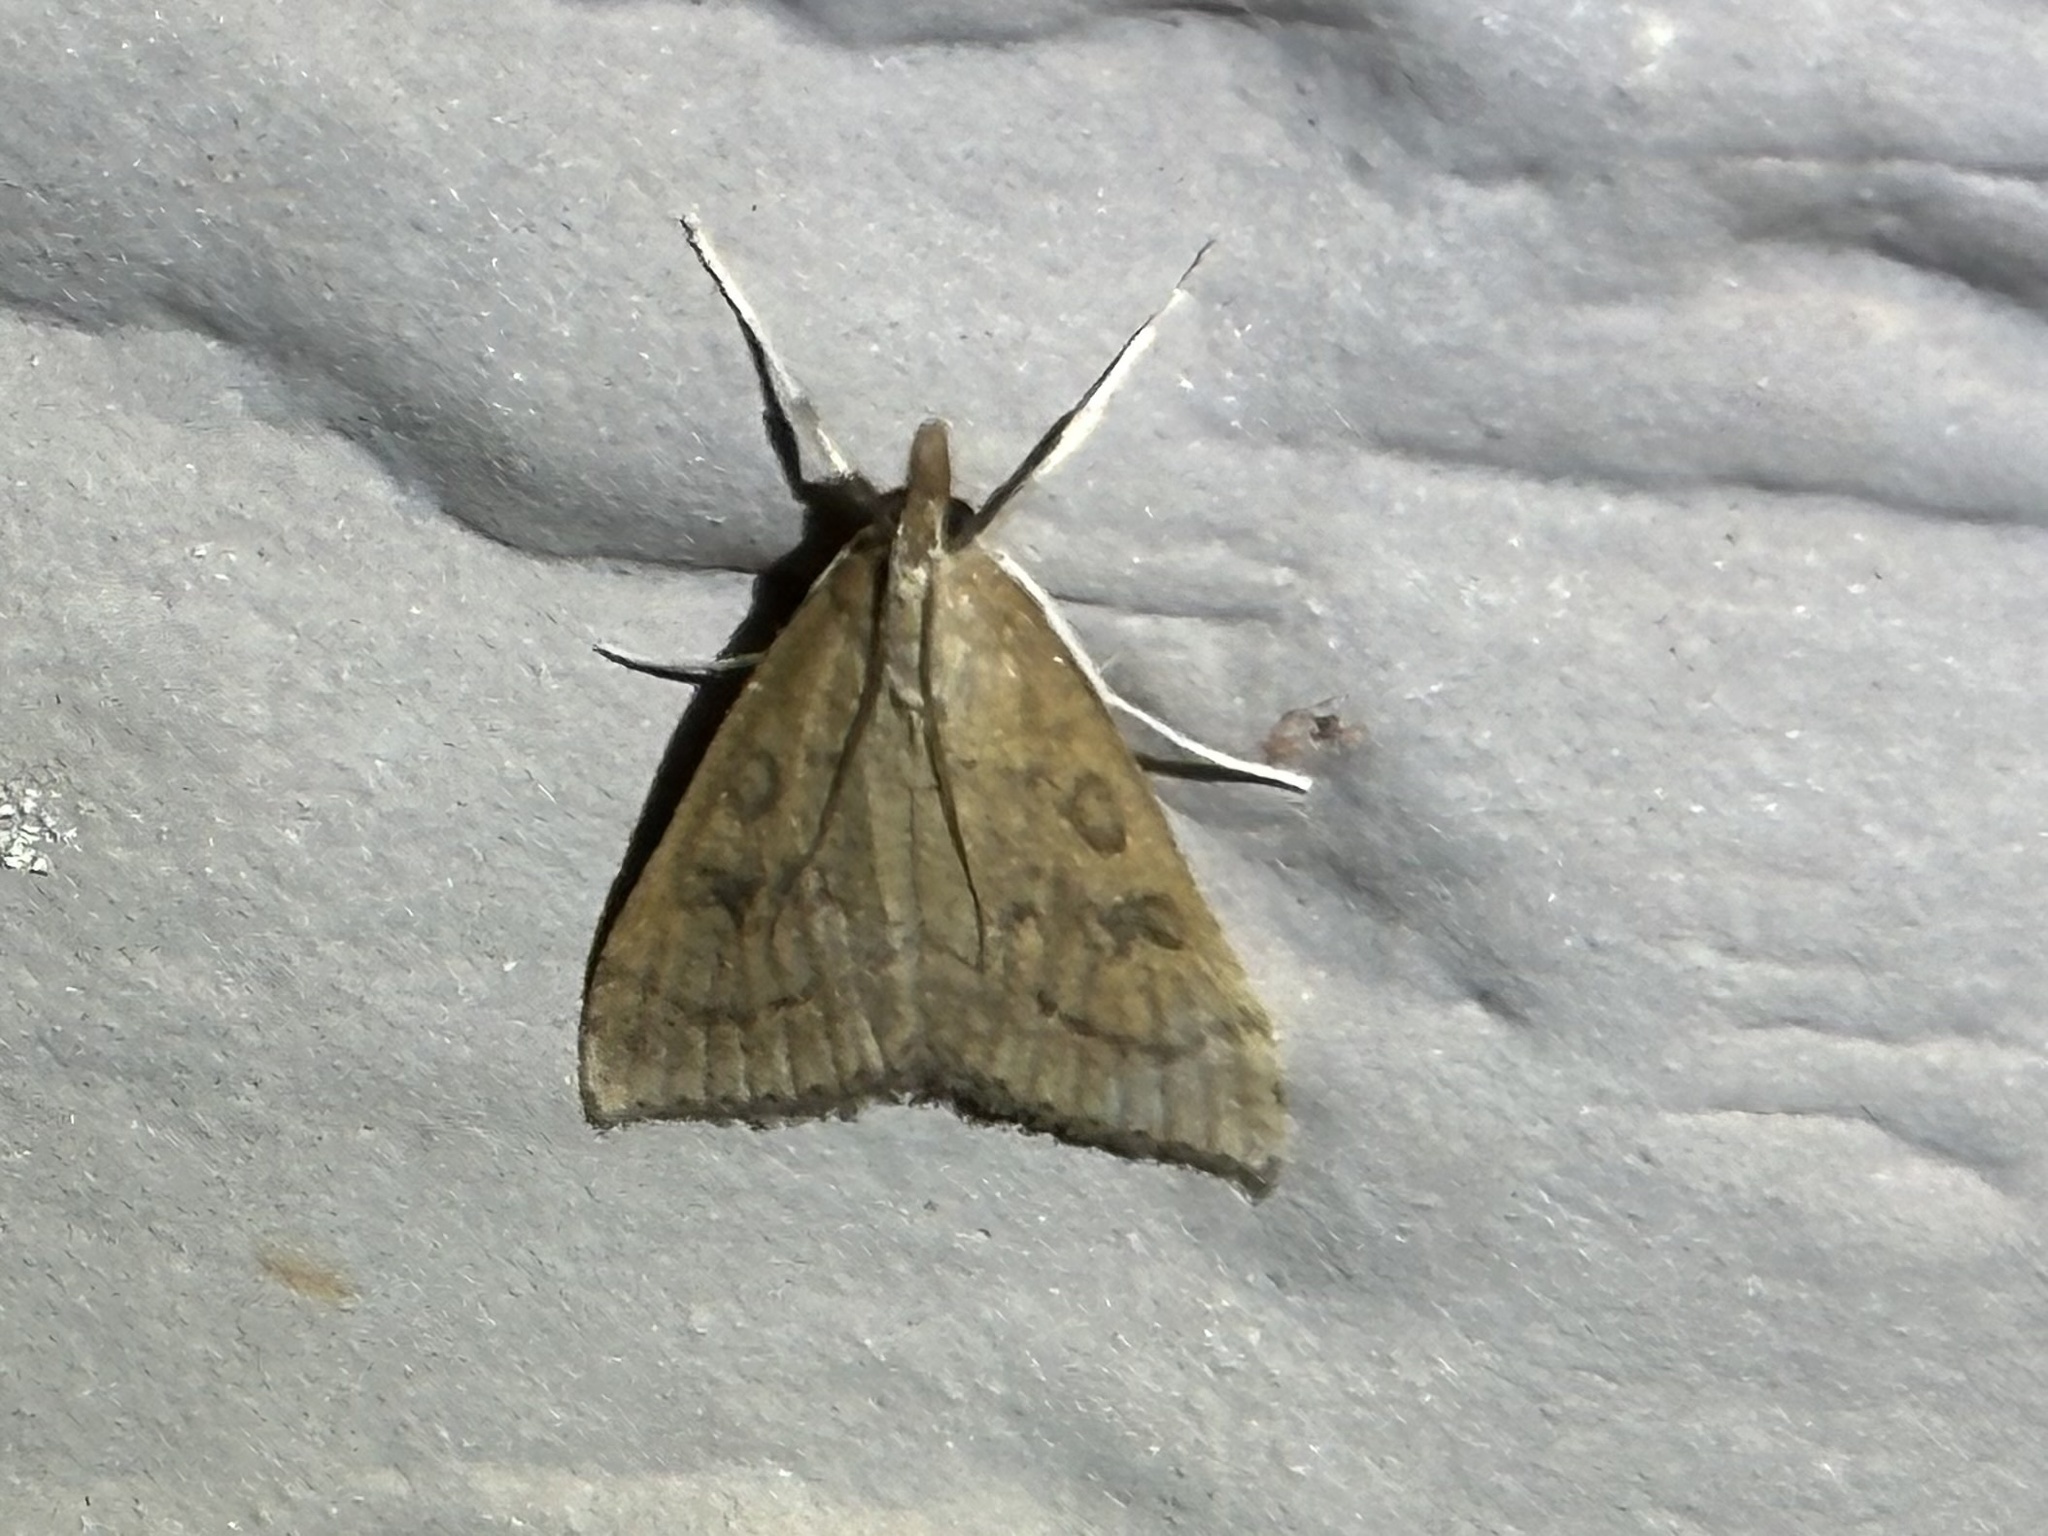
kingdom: Animalia
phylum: Arthropoda
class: Insecta
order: Lepidoptera
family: Crambidae
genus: Udea
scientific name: Udea rubigalis
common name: Celery leaftier moth
